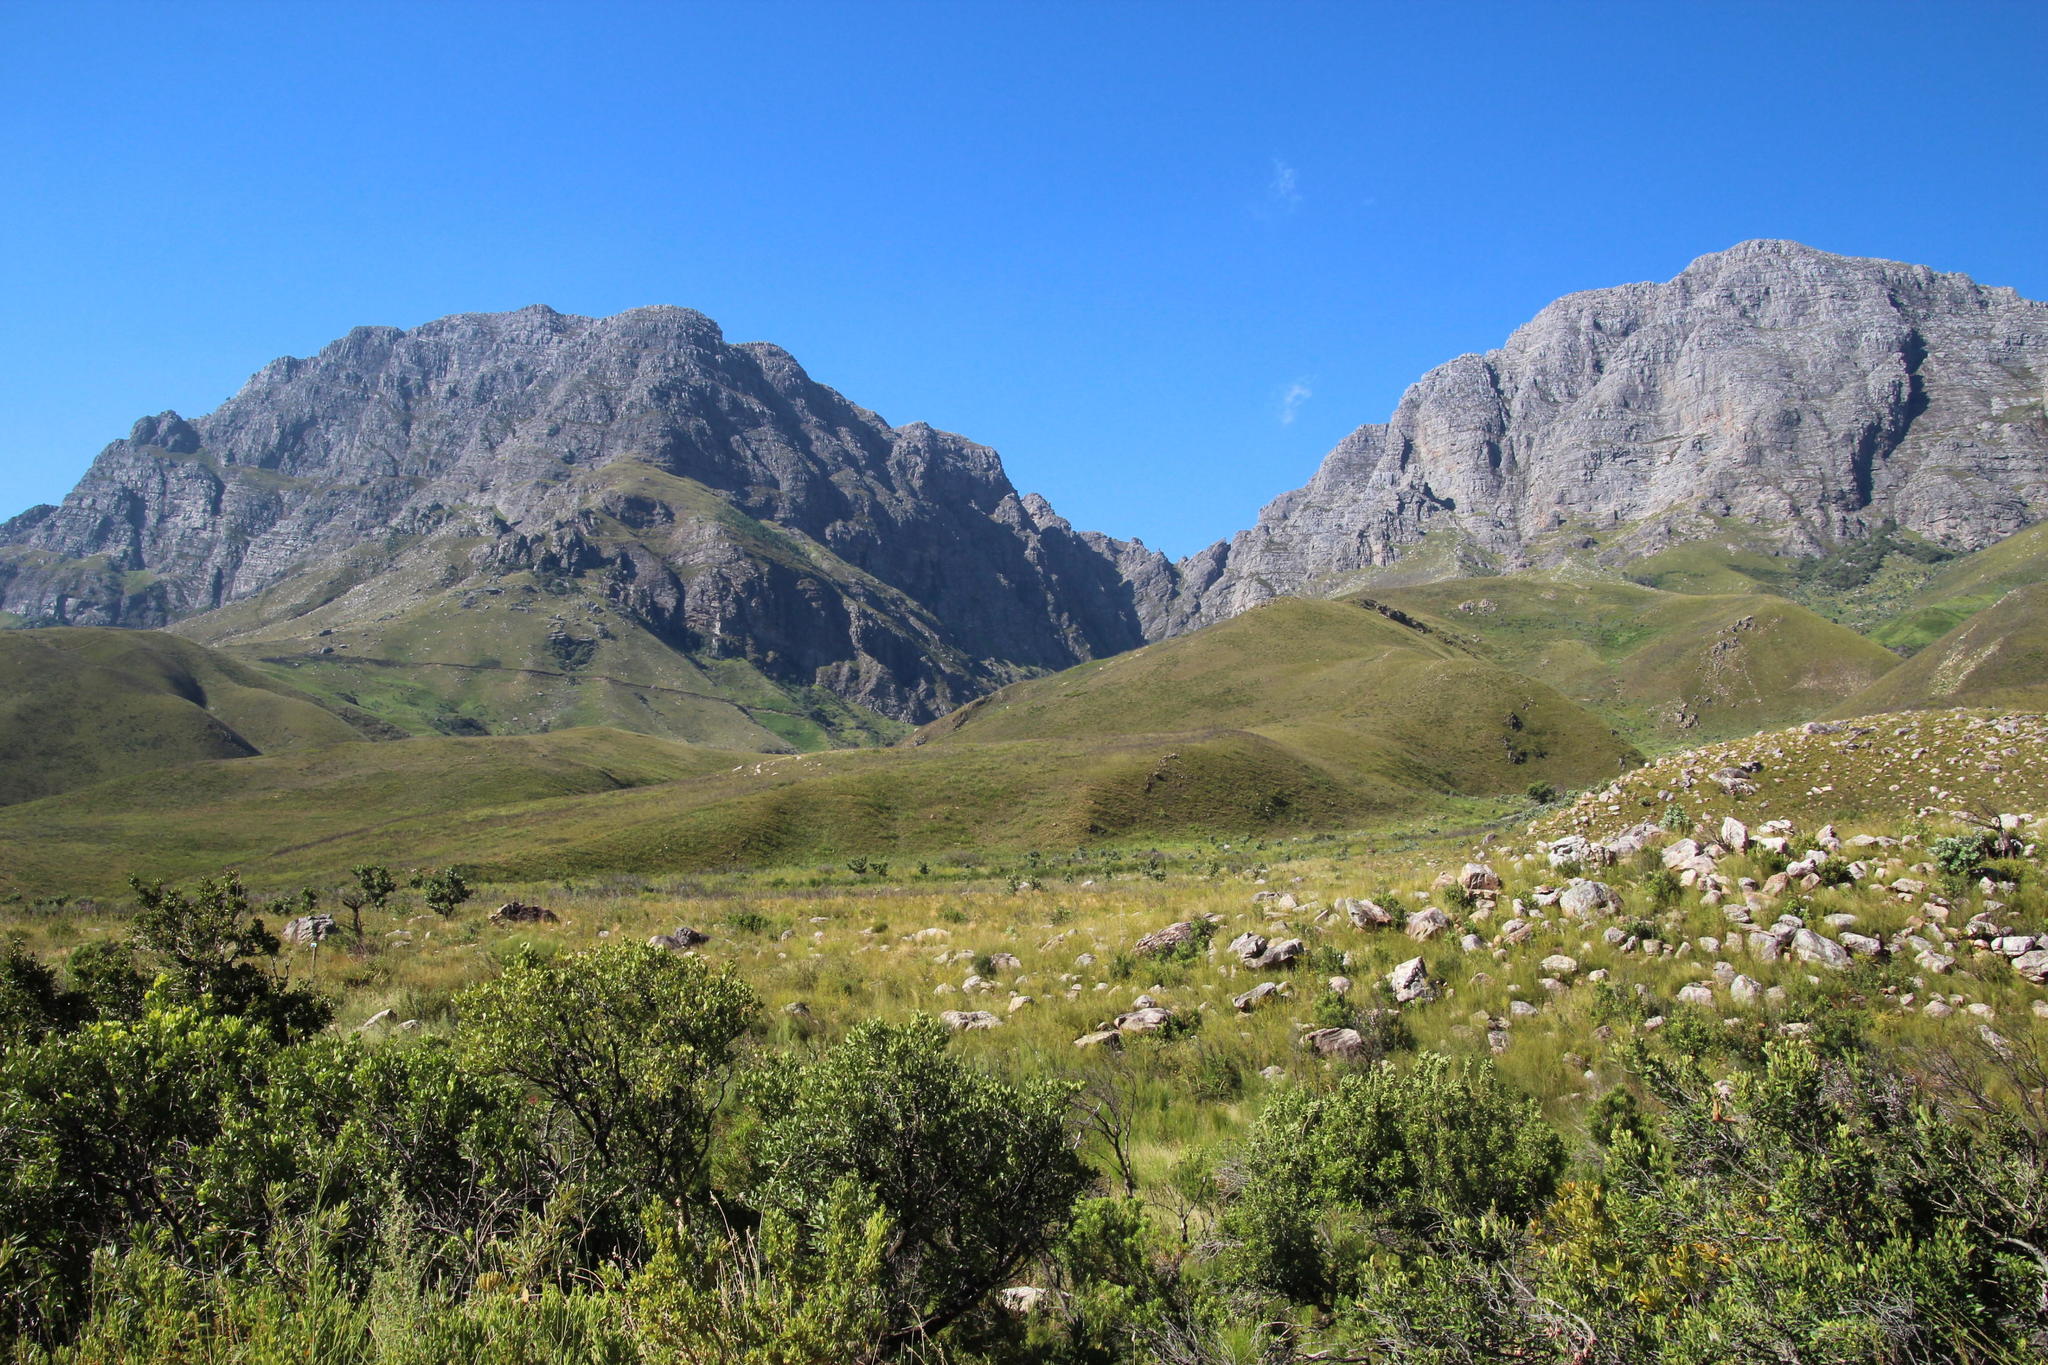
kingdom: Plantae
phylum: Tracheophyta
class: Magnoliopsida
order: Proteales
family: Proteaceae
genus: Brabejum
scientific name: Brabejum stellatifolium
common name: Wild almond
